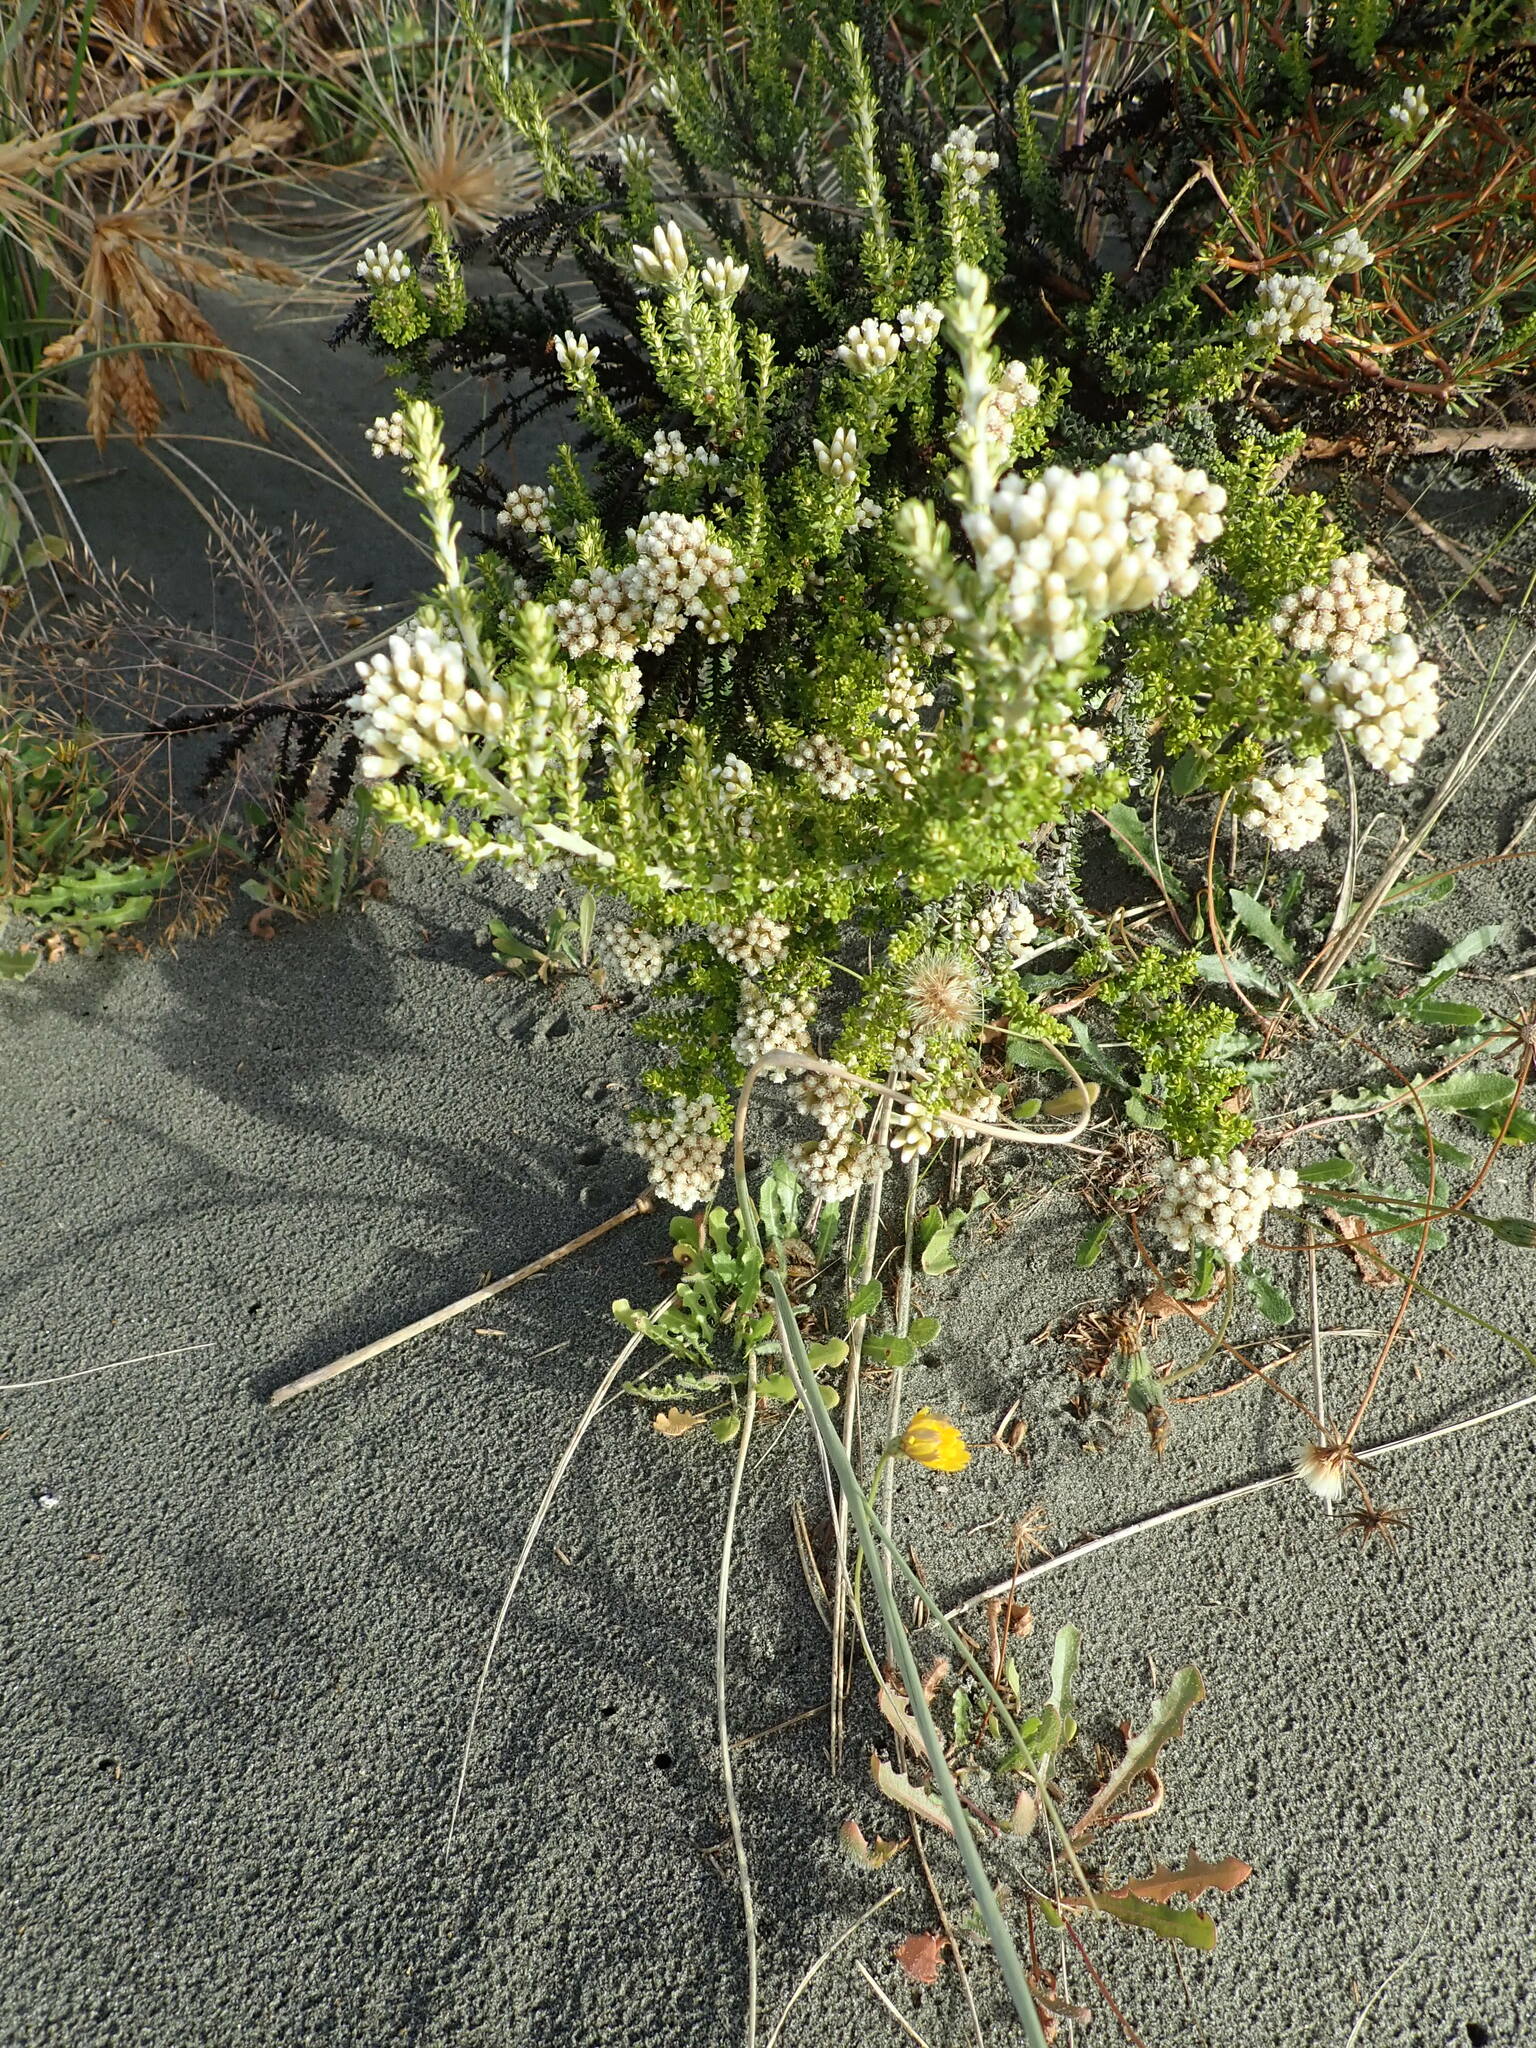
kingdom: Plantae
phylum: Tracheophyta
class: Magnoliopsida
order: Asterales
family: Asteraceae
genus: Ozothamnus
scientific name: Ozothamnus leptophyllus
